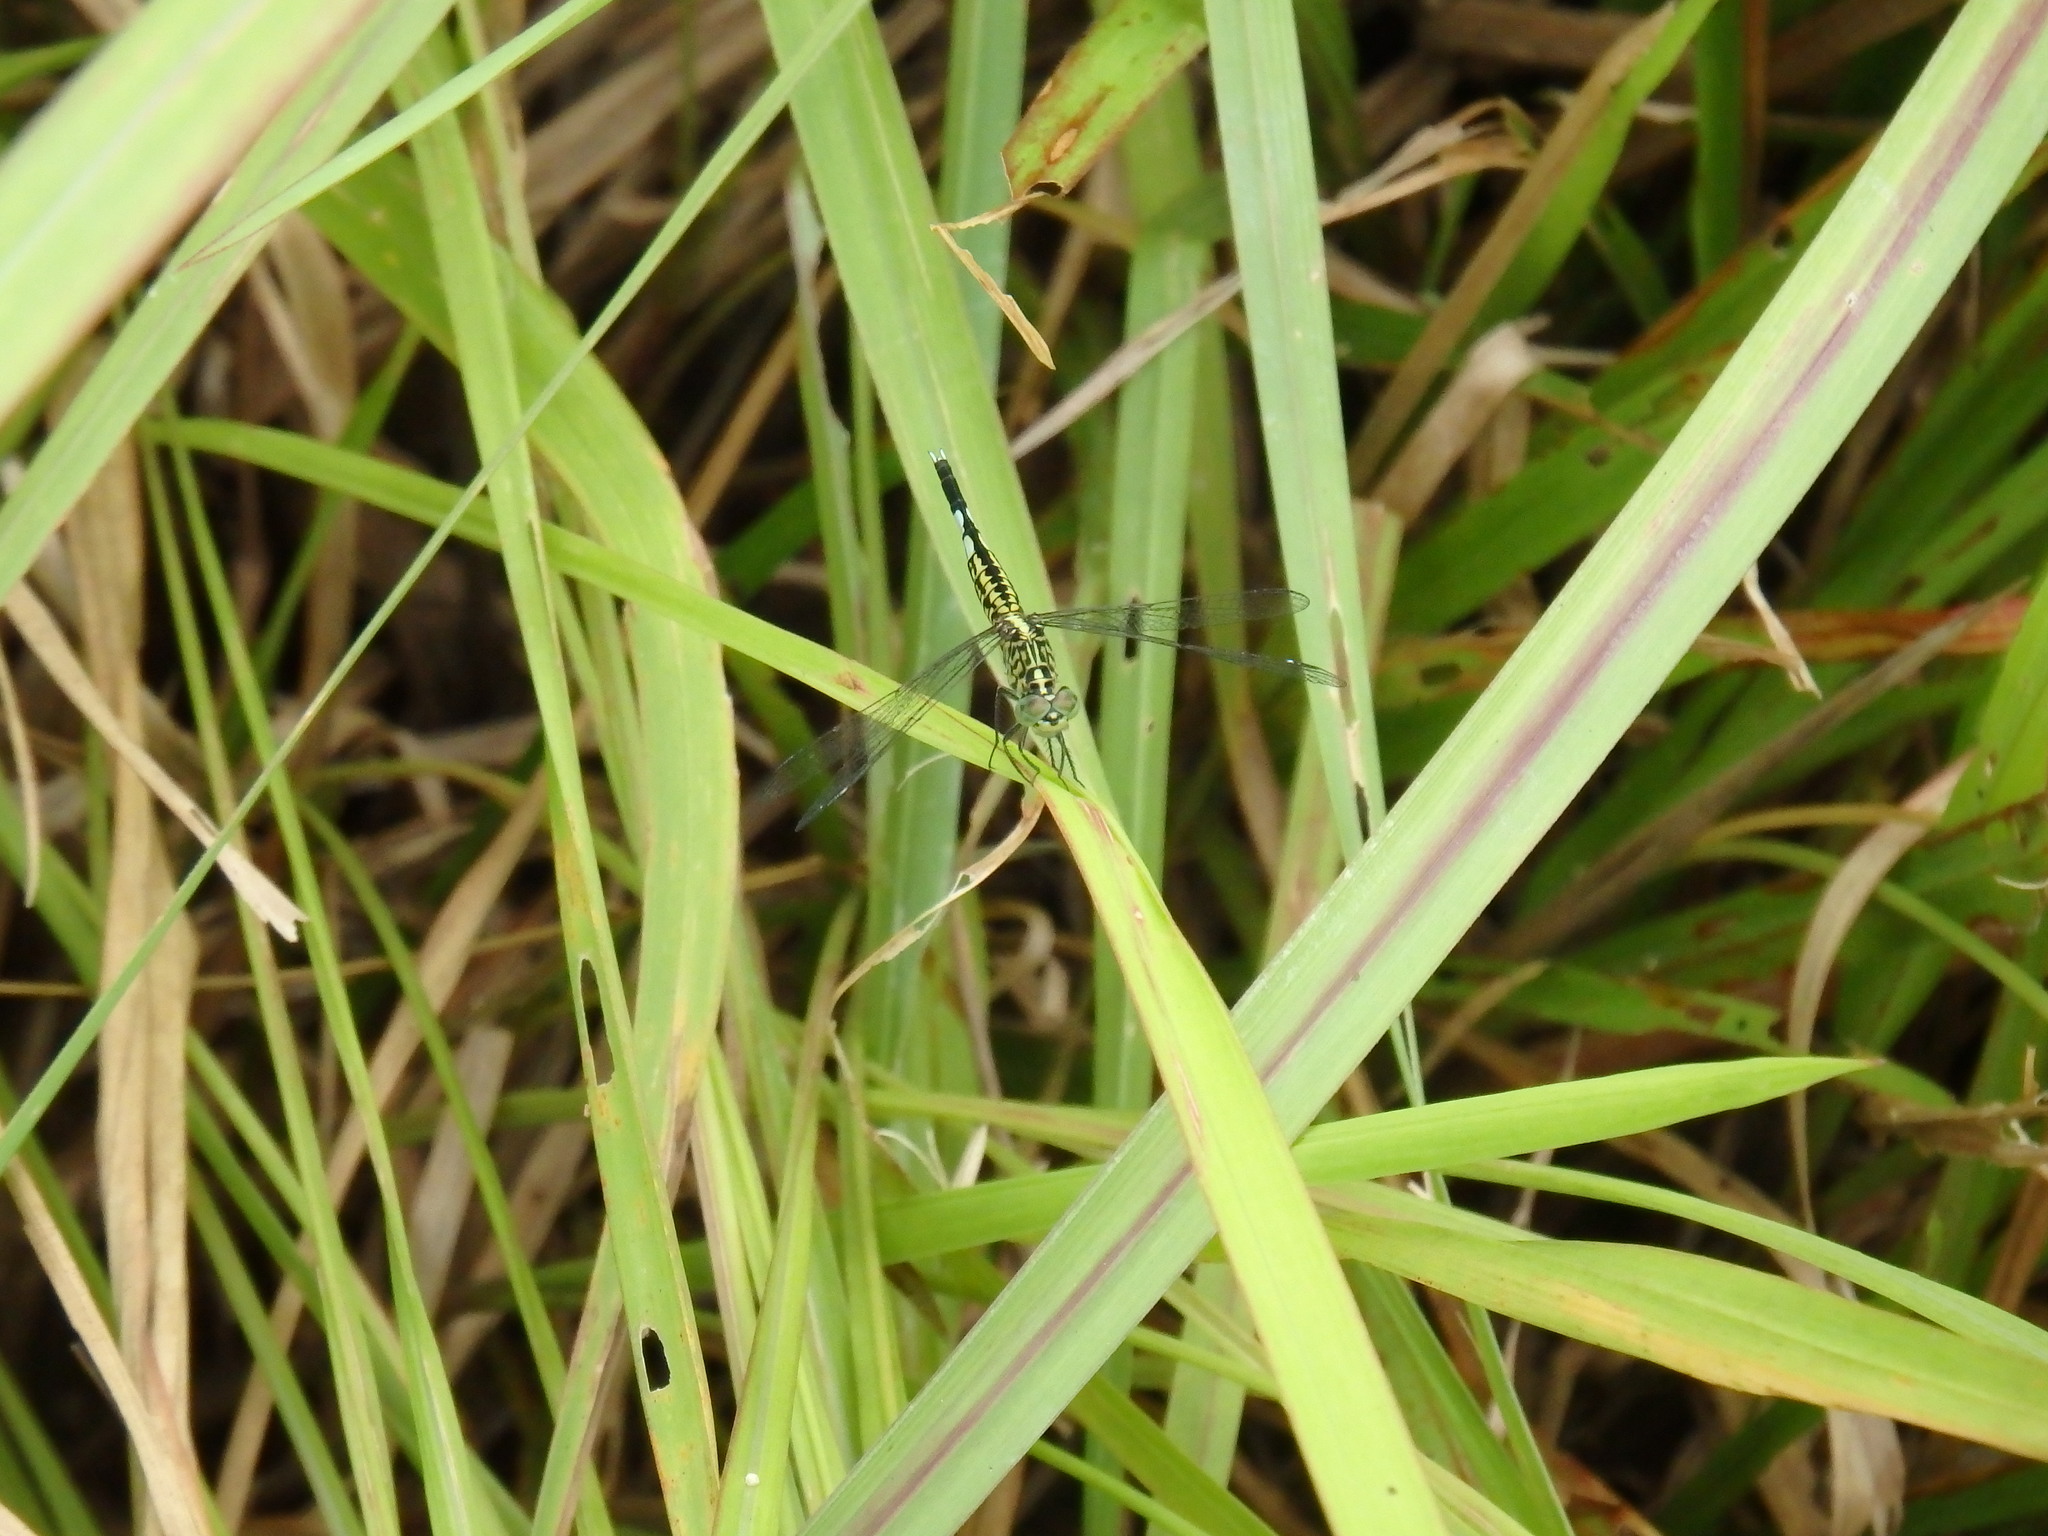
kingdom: Animalia
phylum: Arthropoda
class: Insecta
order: Odonata
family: Libellulidae
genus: Acisoma
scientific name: Acisoma panorpoides
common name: Asian pintail
